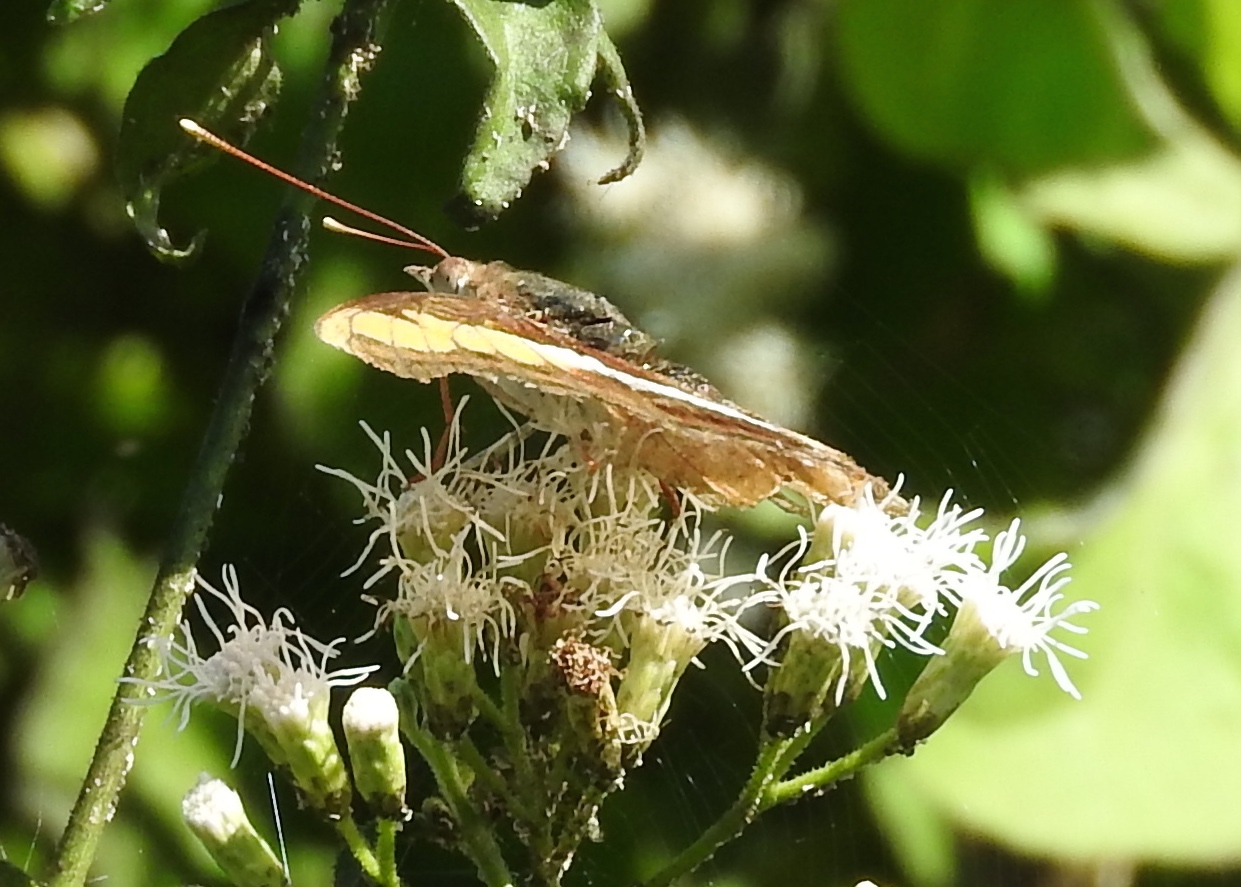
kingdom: Animalia
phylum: Arthropoda
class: Insecta
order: Lepidoptera
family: Nymphalidae
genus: Doxocopa
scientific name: Doxocopa laure
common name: Silver emperor
